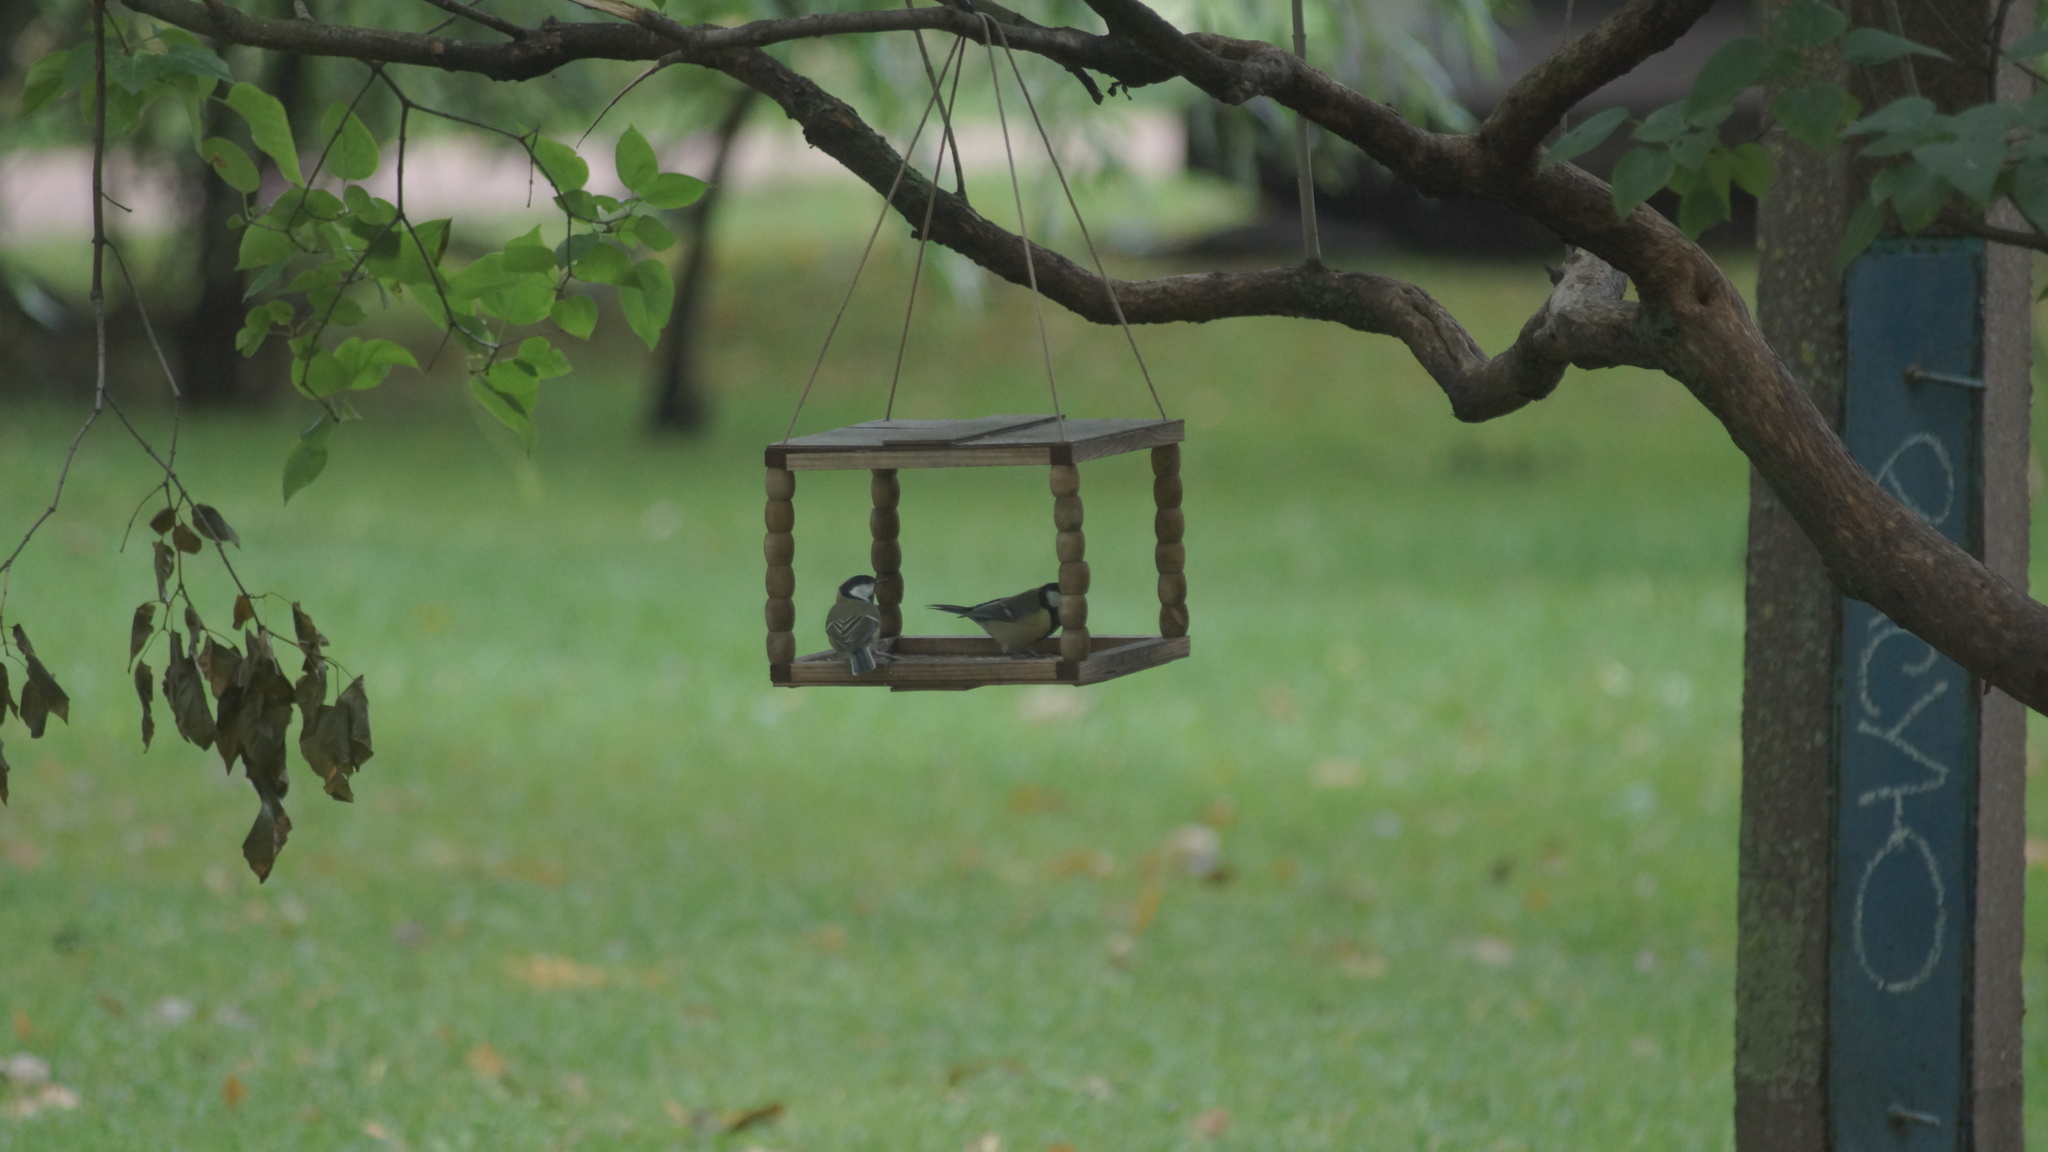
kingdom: Animalia
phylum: Chordata
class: Aves
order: Passeriformes
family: Paridae
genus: Parus
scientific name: Parus major
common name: Great tit
